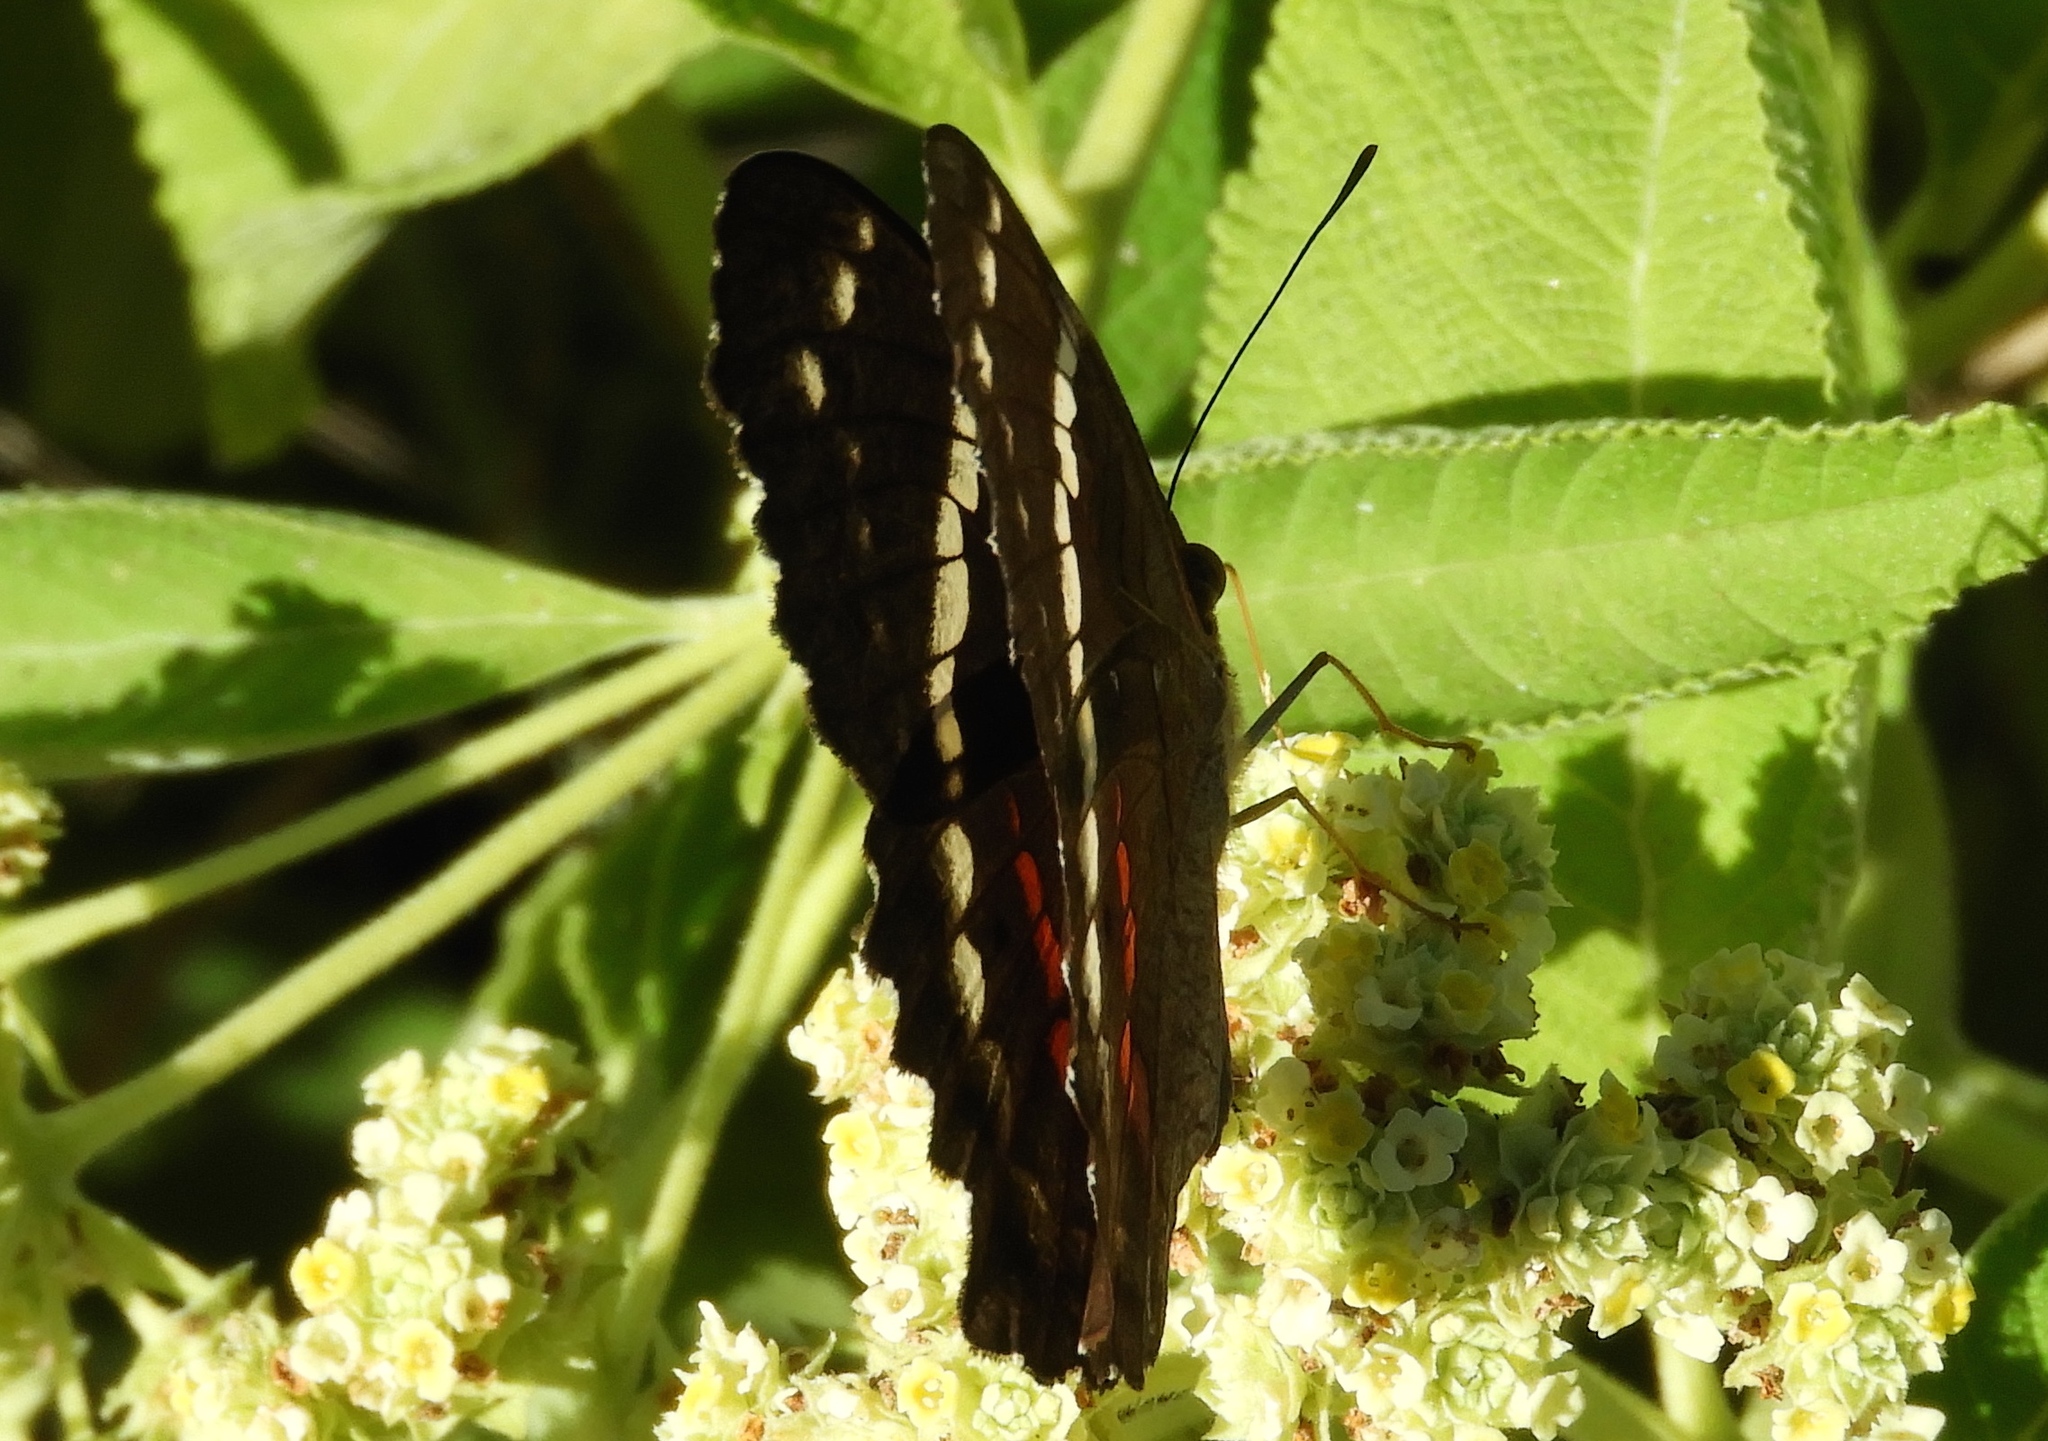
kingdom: Animalia
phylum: Arthropoda
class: Insecta
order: Lepidoptera
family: Nymphalidae
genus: Anartia
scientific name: Anartia fatima
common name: Banded peacock
